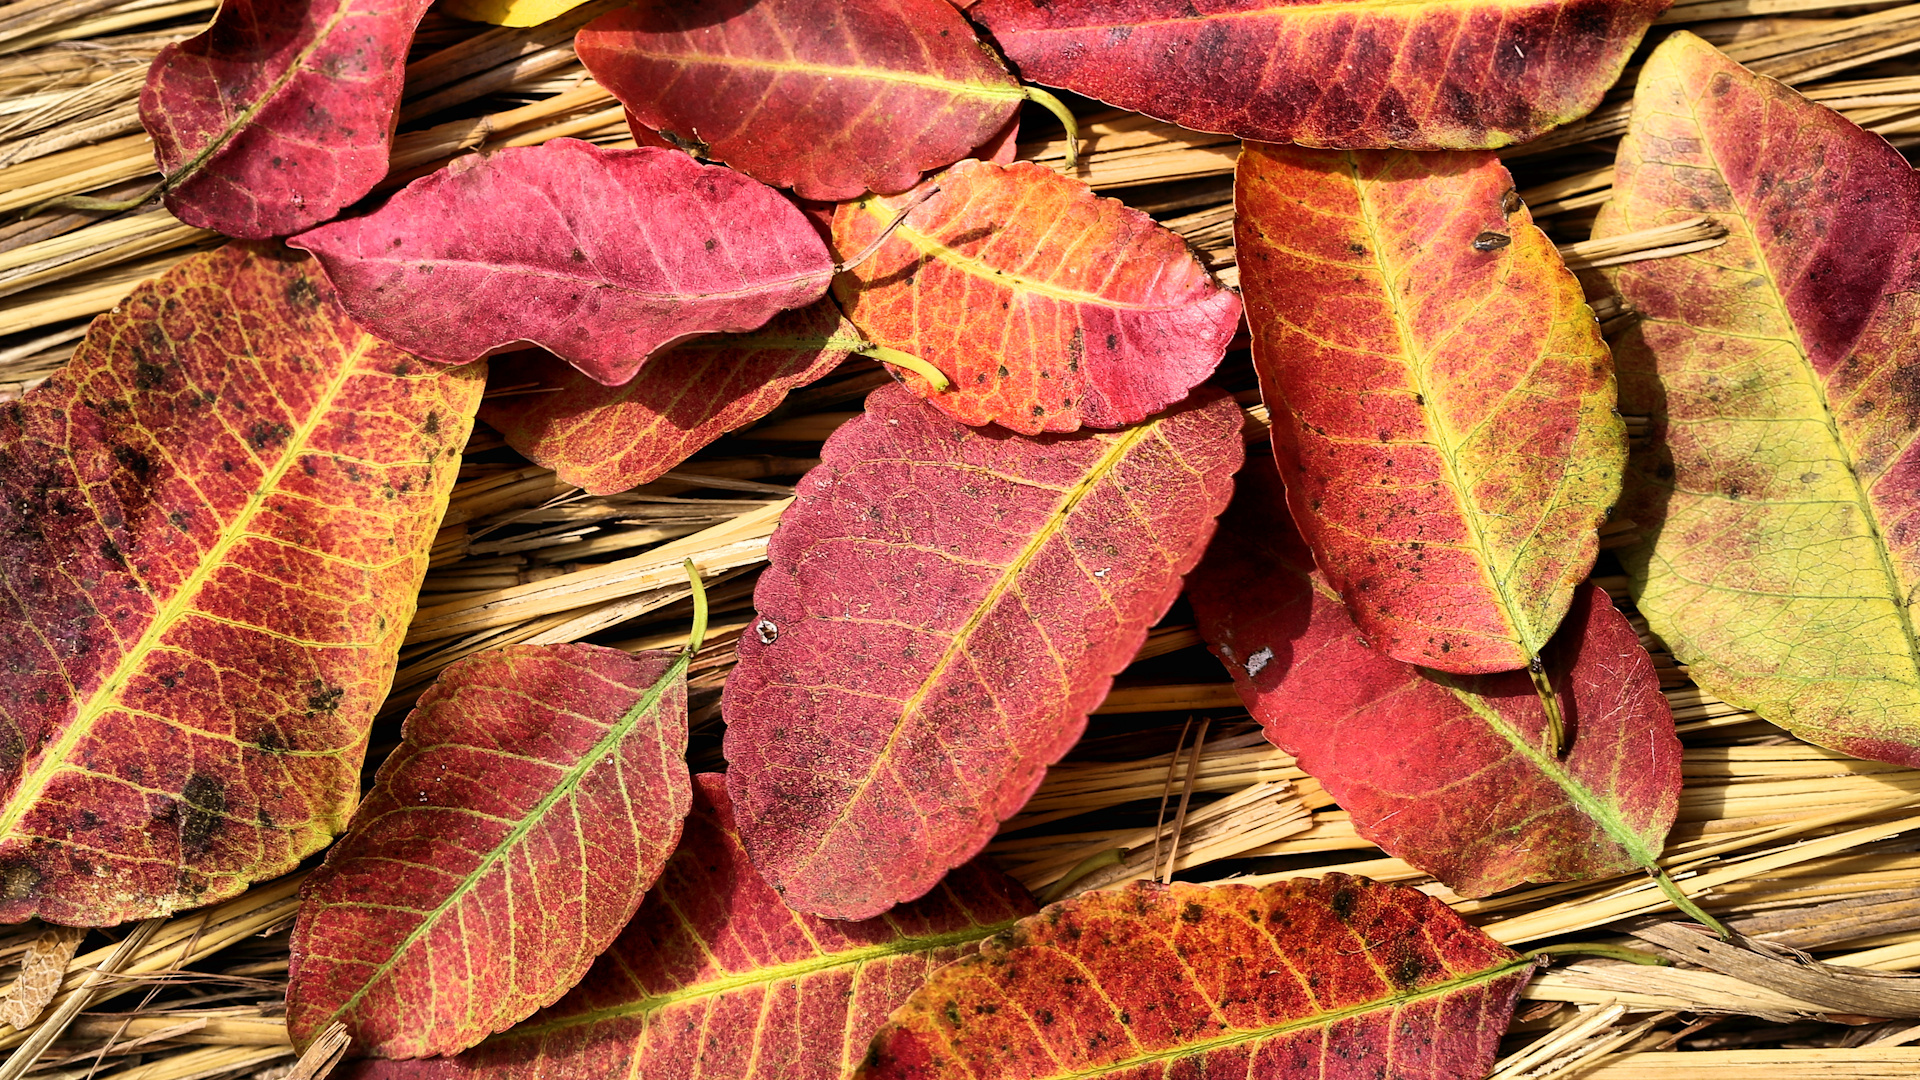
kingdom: Plantae
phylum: Tracheophyta
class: Magnoliopsida
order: Malpighiales
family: Euphorbiaceae
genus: Spirostachys
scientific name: Spirostachys africana
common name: Tamboti
